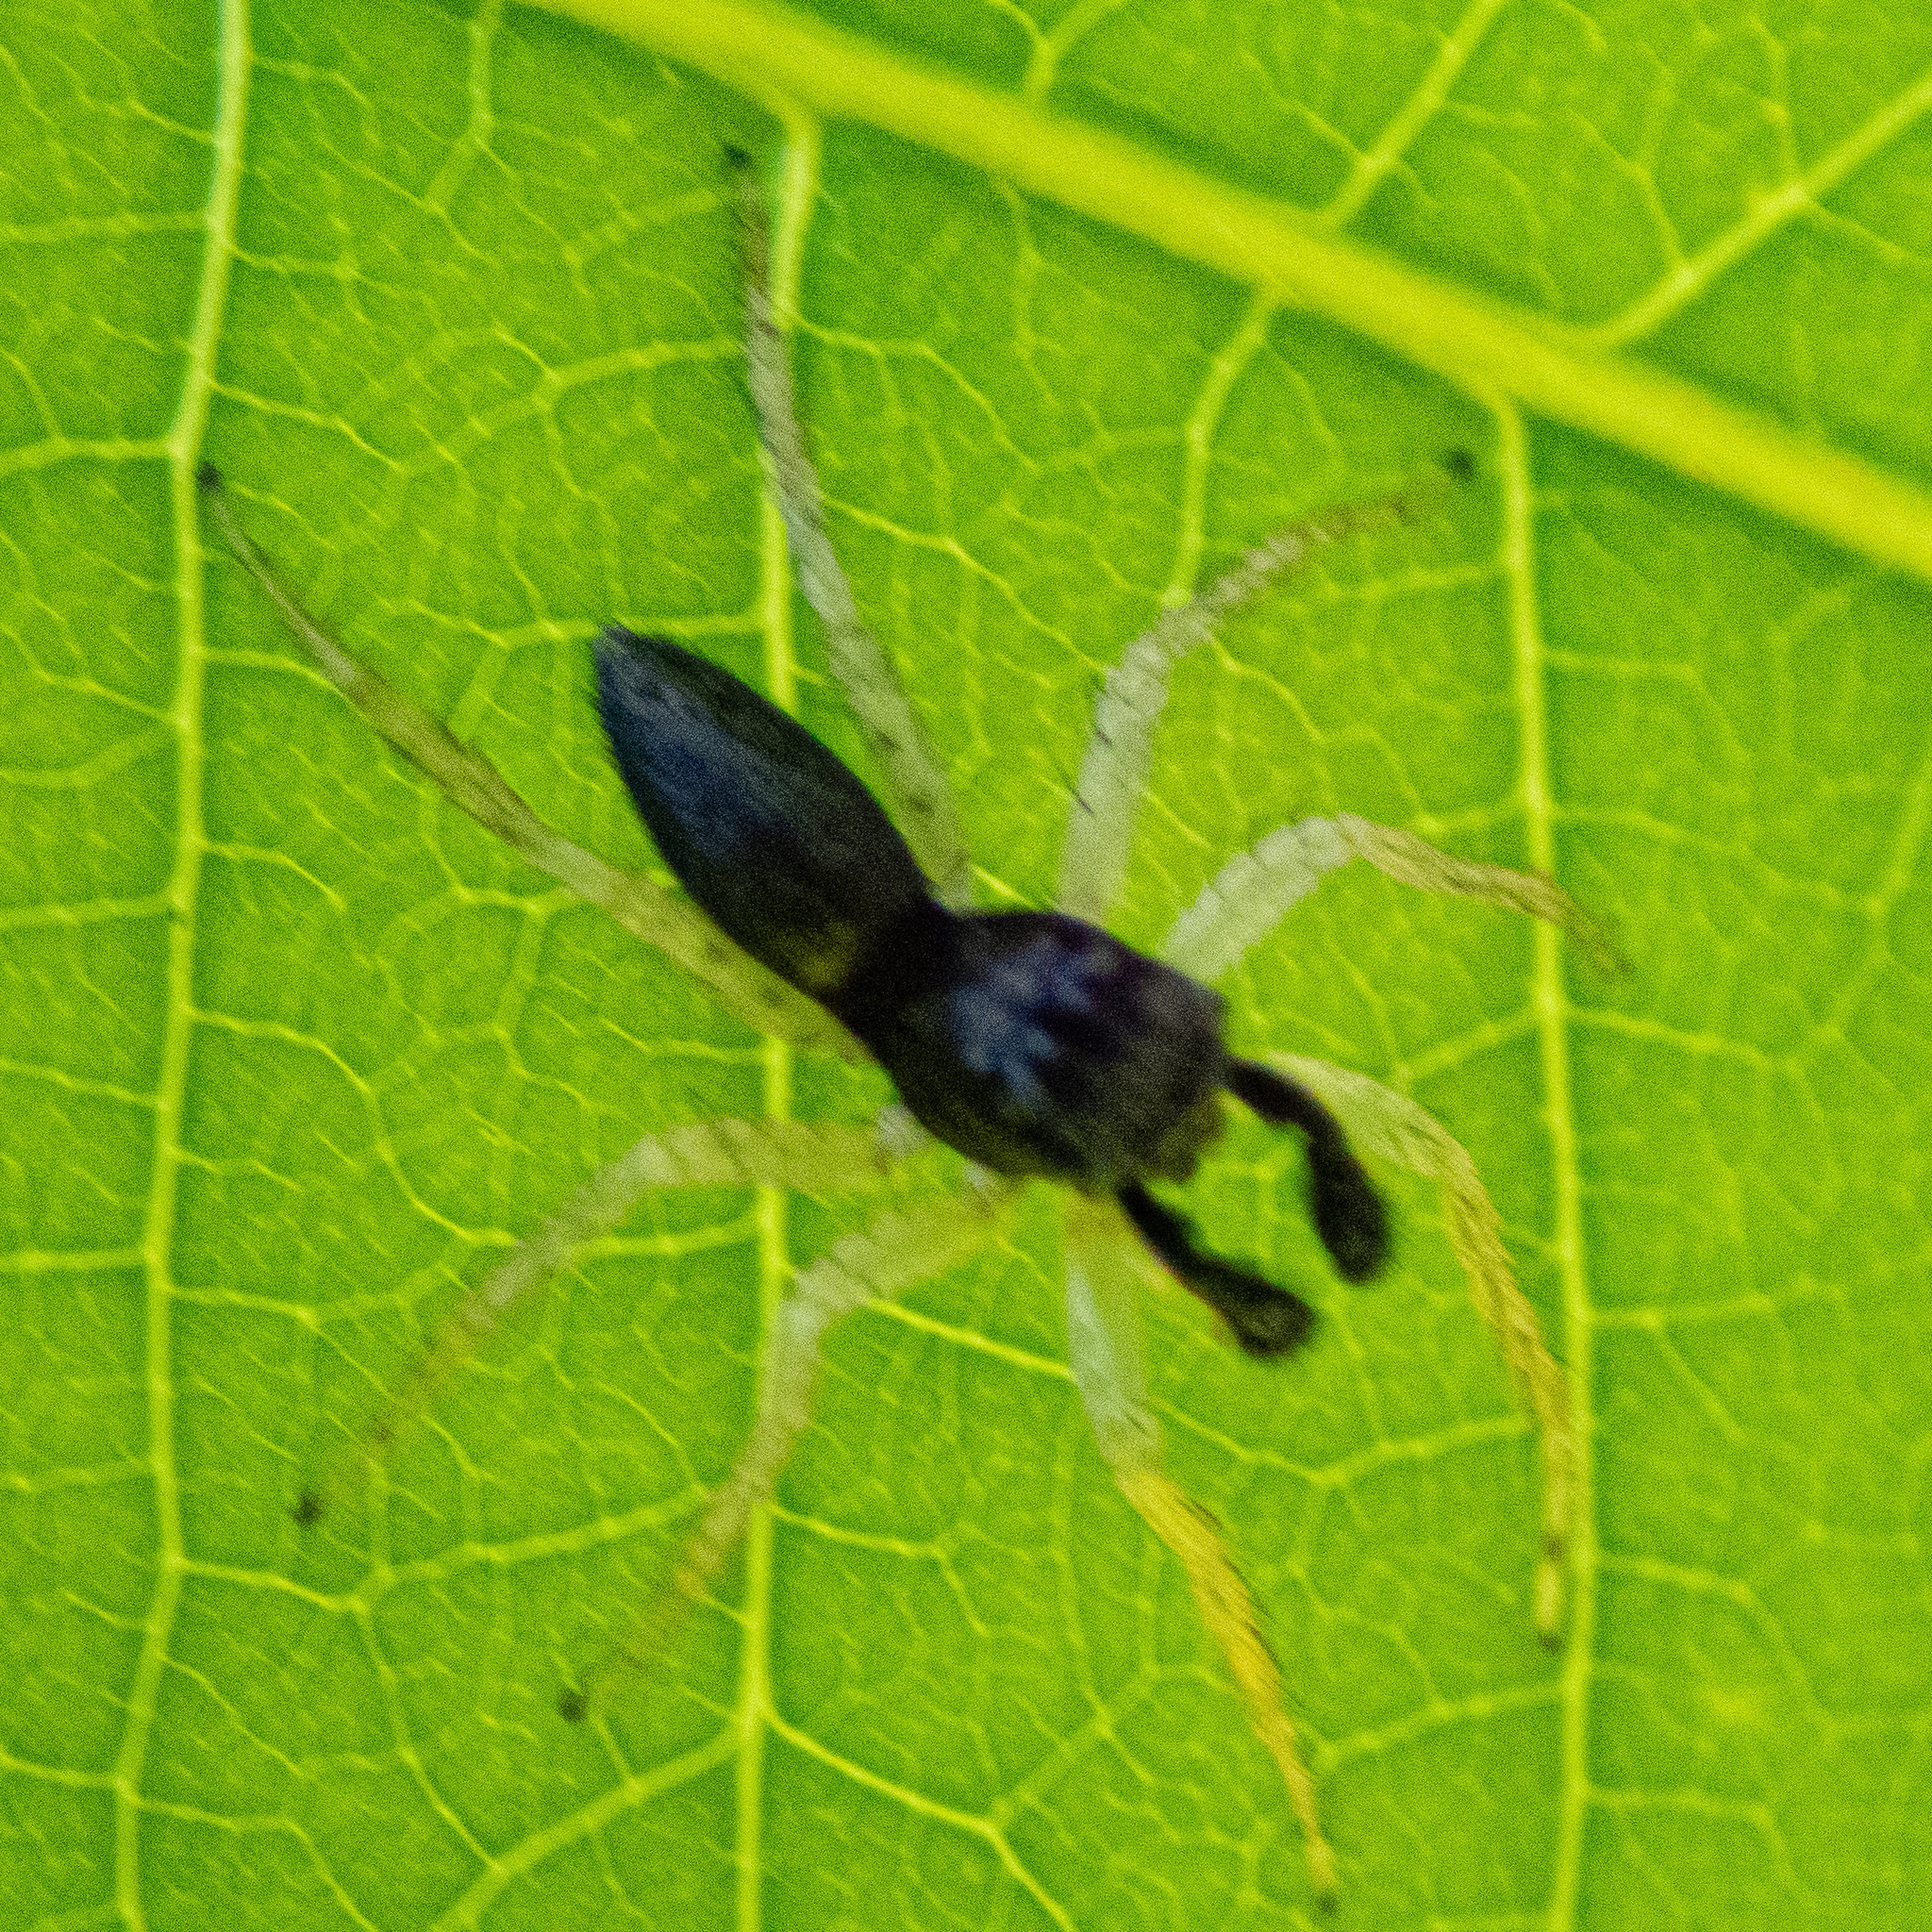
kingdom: Animalia
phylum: Arthropoda
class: Arachnida
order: Araneae
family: Salticidae
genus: Maevia
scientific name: Maevia inclemens
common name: Dimorphic jumper
